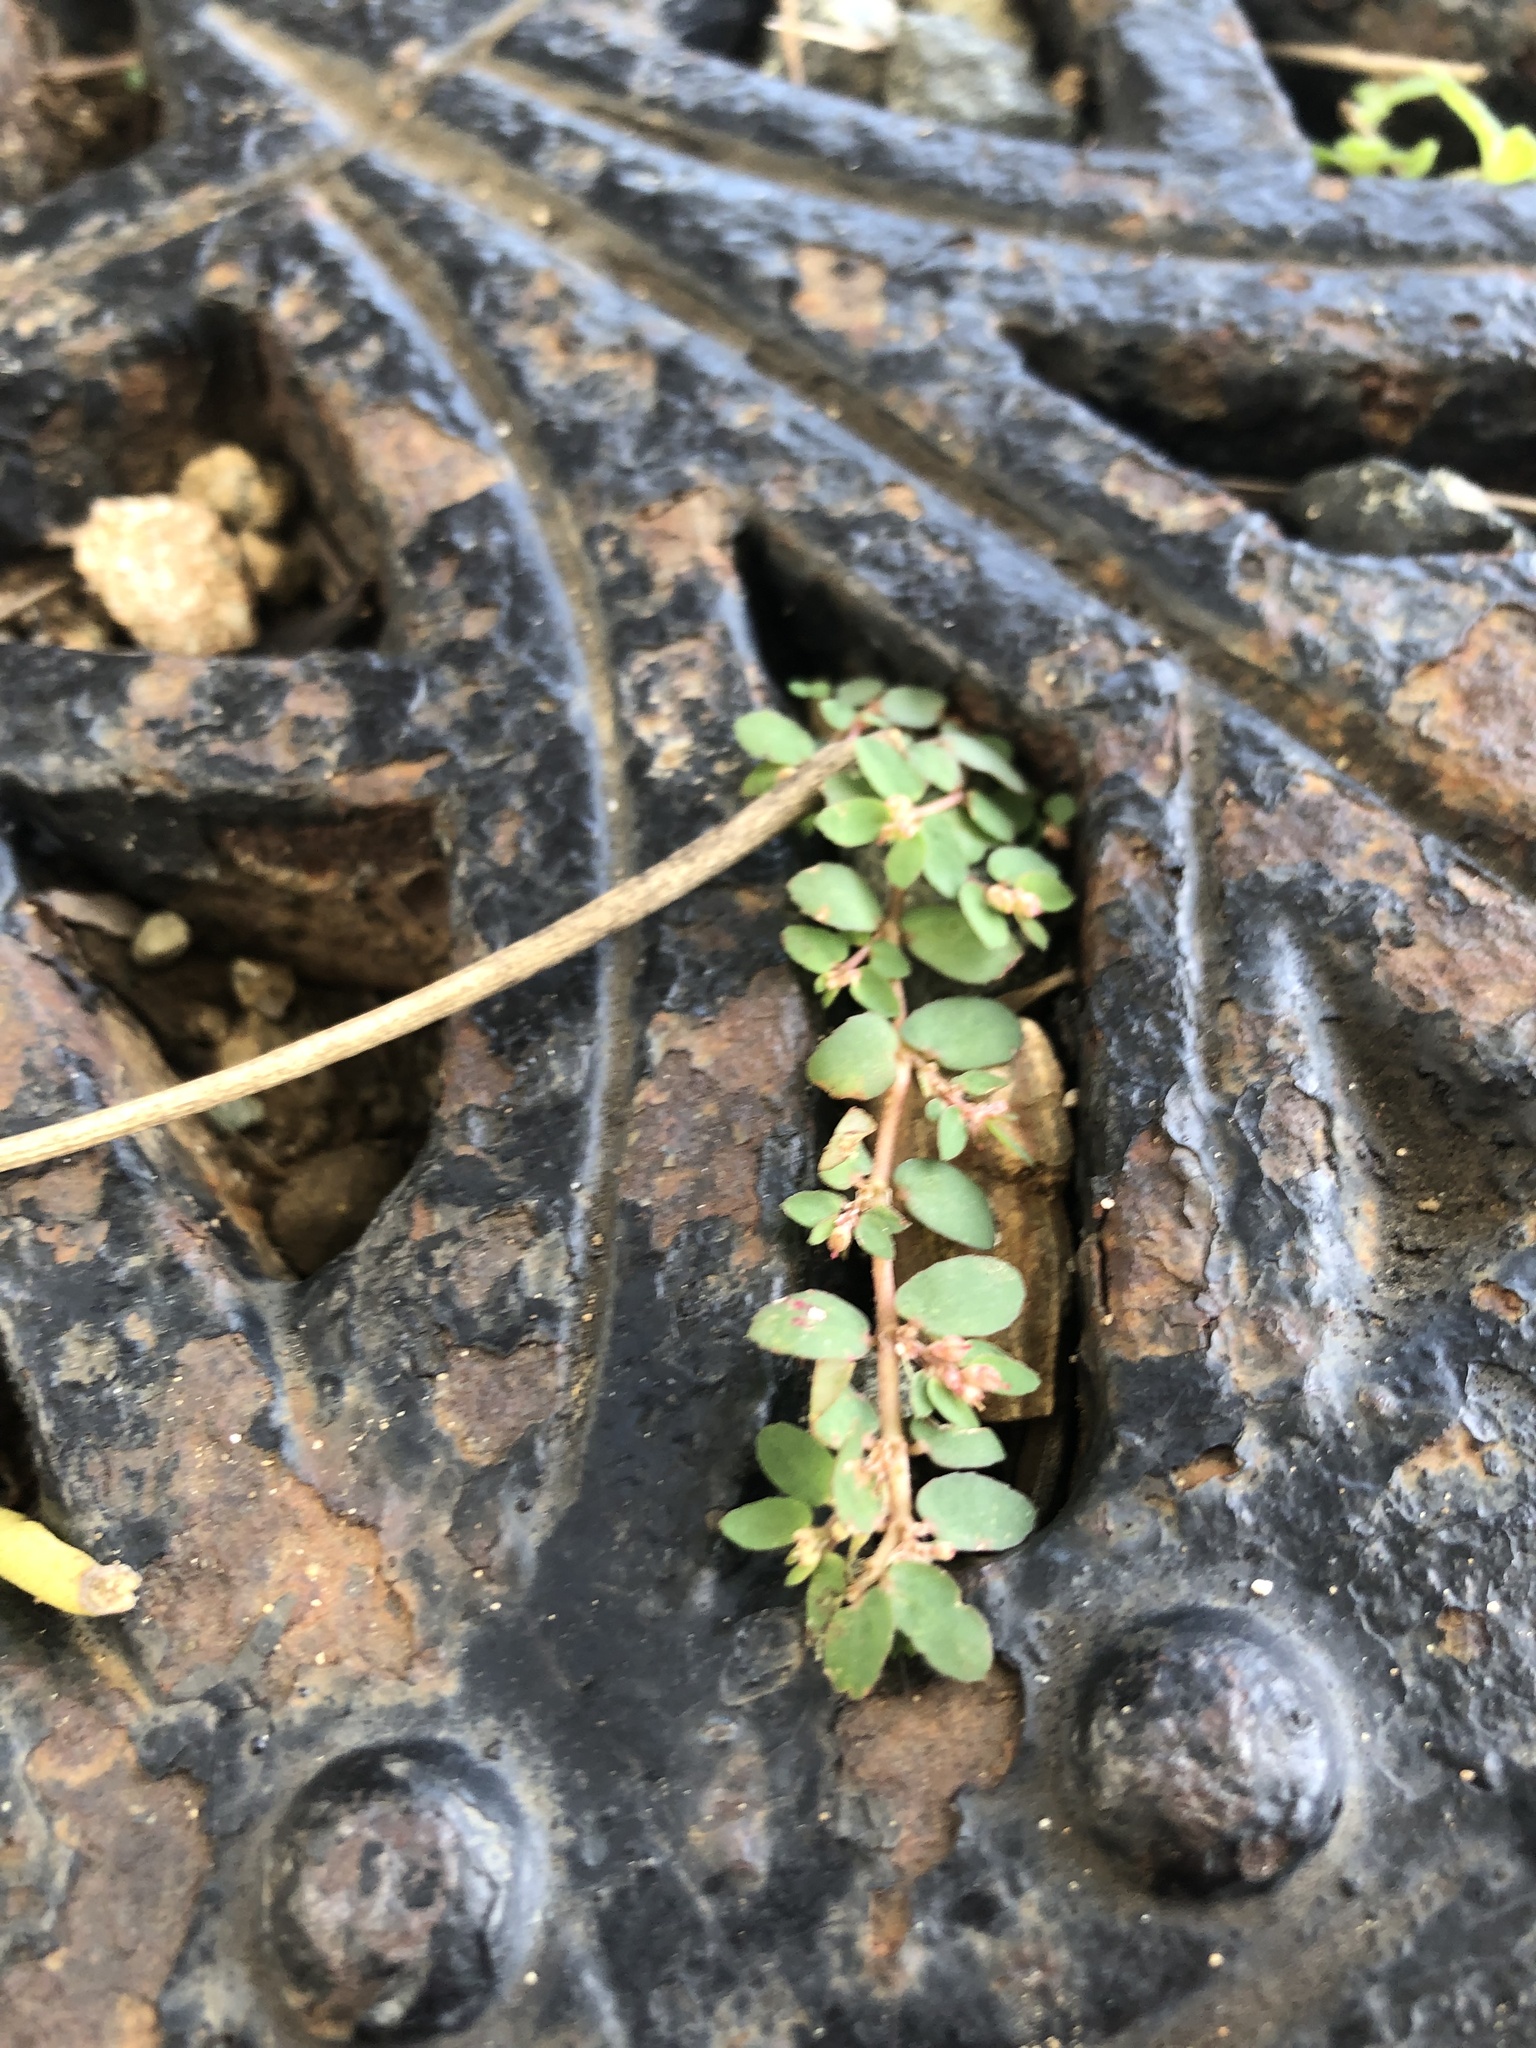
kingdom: Plantae
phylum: Tracheophyta
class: Magnoliopsida
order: Malpighiales
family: Euphorbiaceae
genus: Euphorbia
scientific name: Euphorbia thymifolia
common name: Gulf sandmat
